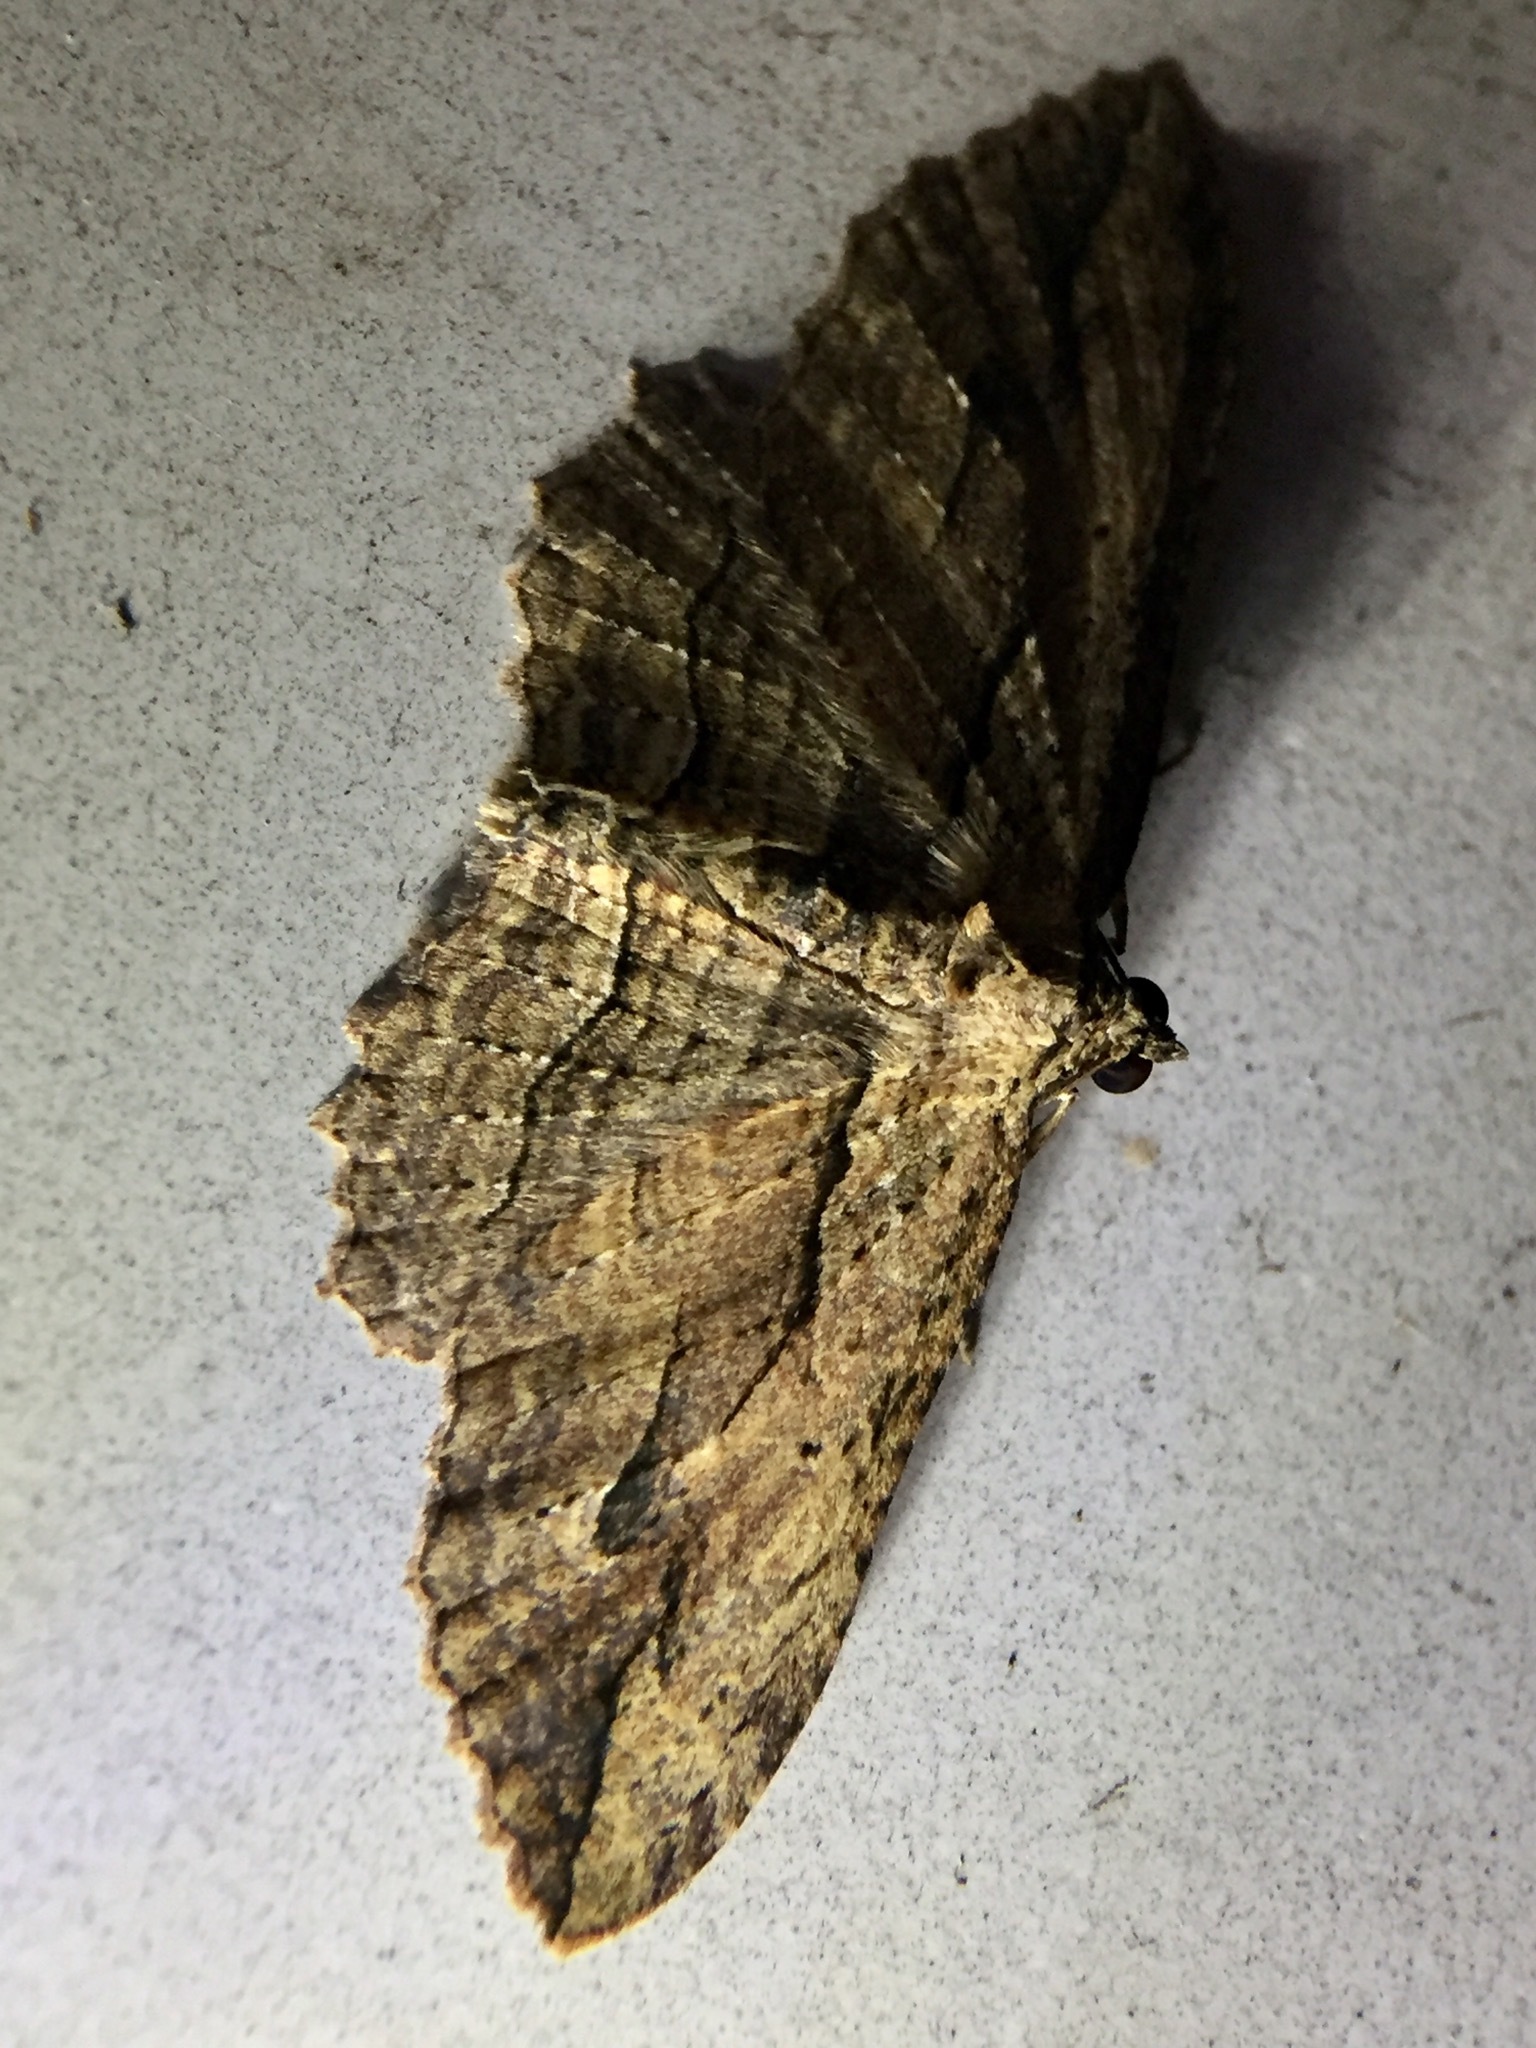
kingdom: Animalia
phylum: Arthropoda
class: Insecta
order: Lepidoptera
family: Geometridae
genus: Austrocidaria
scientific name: Austrocidaria bipartita
